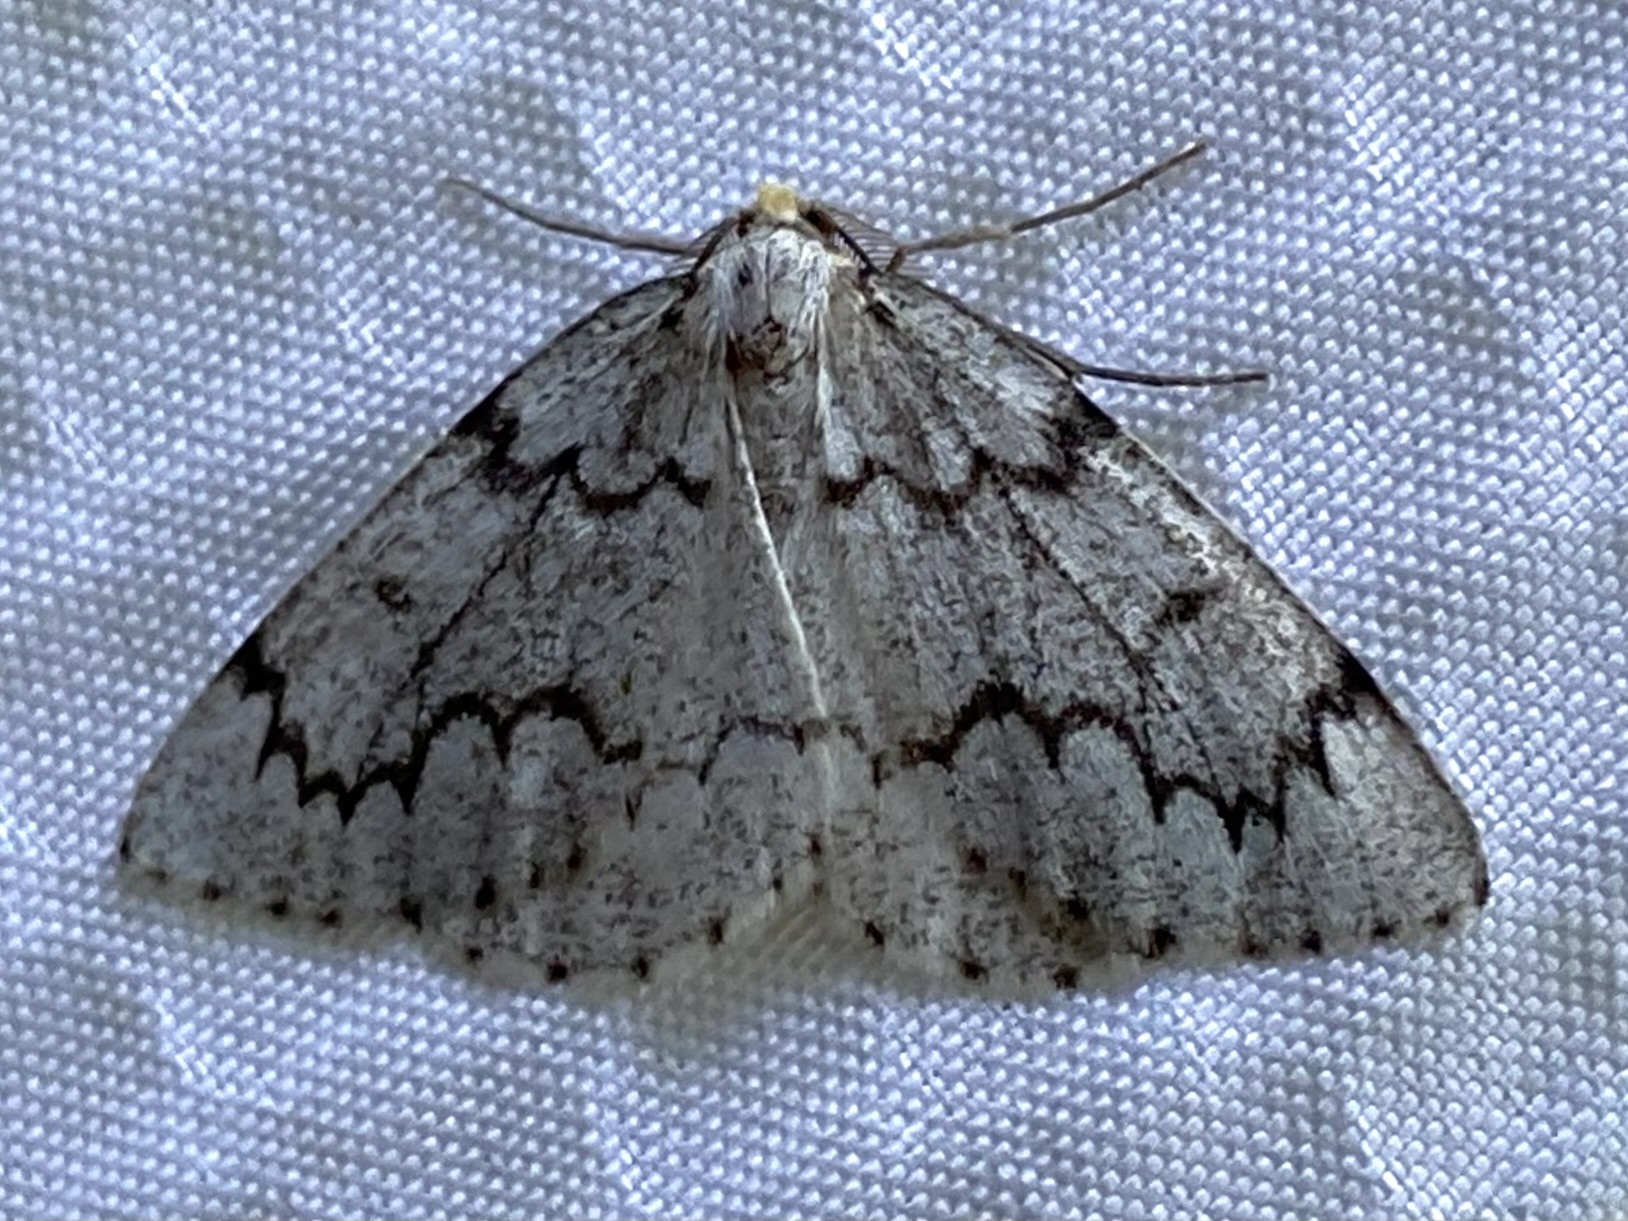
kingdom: Animalia
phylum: Arthropoda
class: Insecta
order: Lepidoptera
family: Geometridae
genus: Nepytia
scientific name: Nepytia canosaria
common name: False hemlock looper
